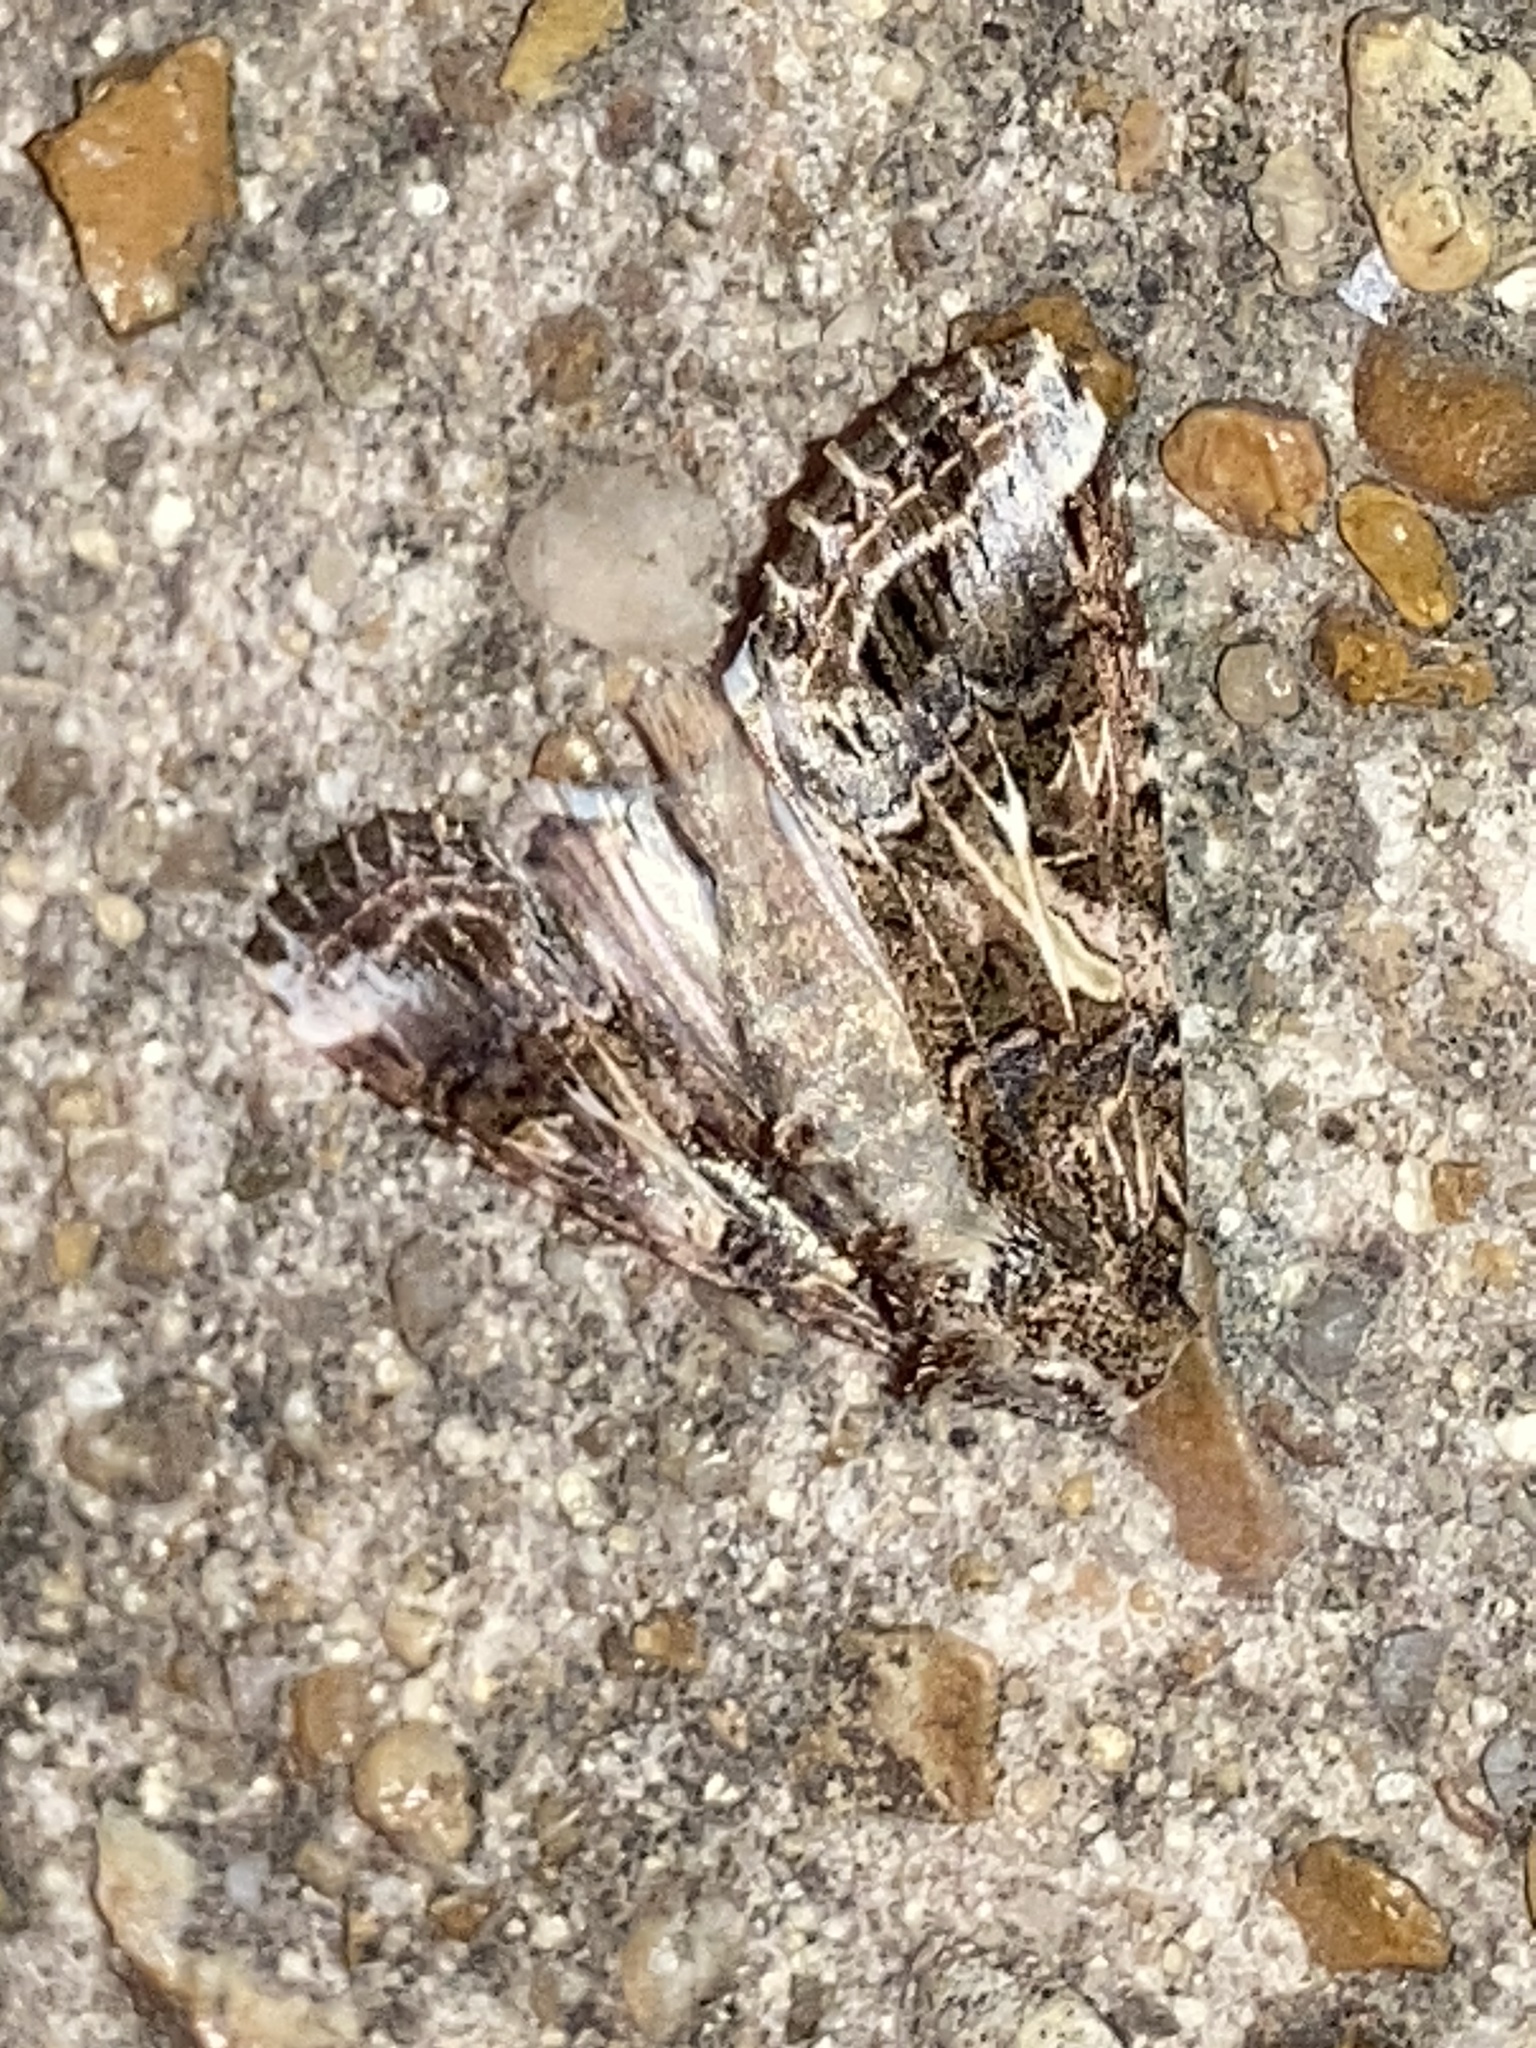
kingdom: Animalia
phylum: Arthropoda
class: Insecta
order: Lepidoptera
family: Noctuidae
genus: Spodoptera
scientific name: Spodoptera ornithogalli
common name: Yellow-striped armyworm
